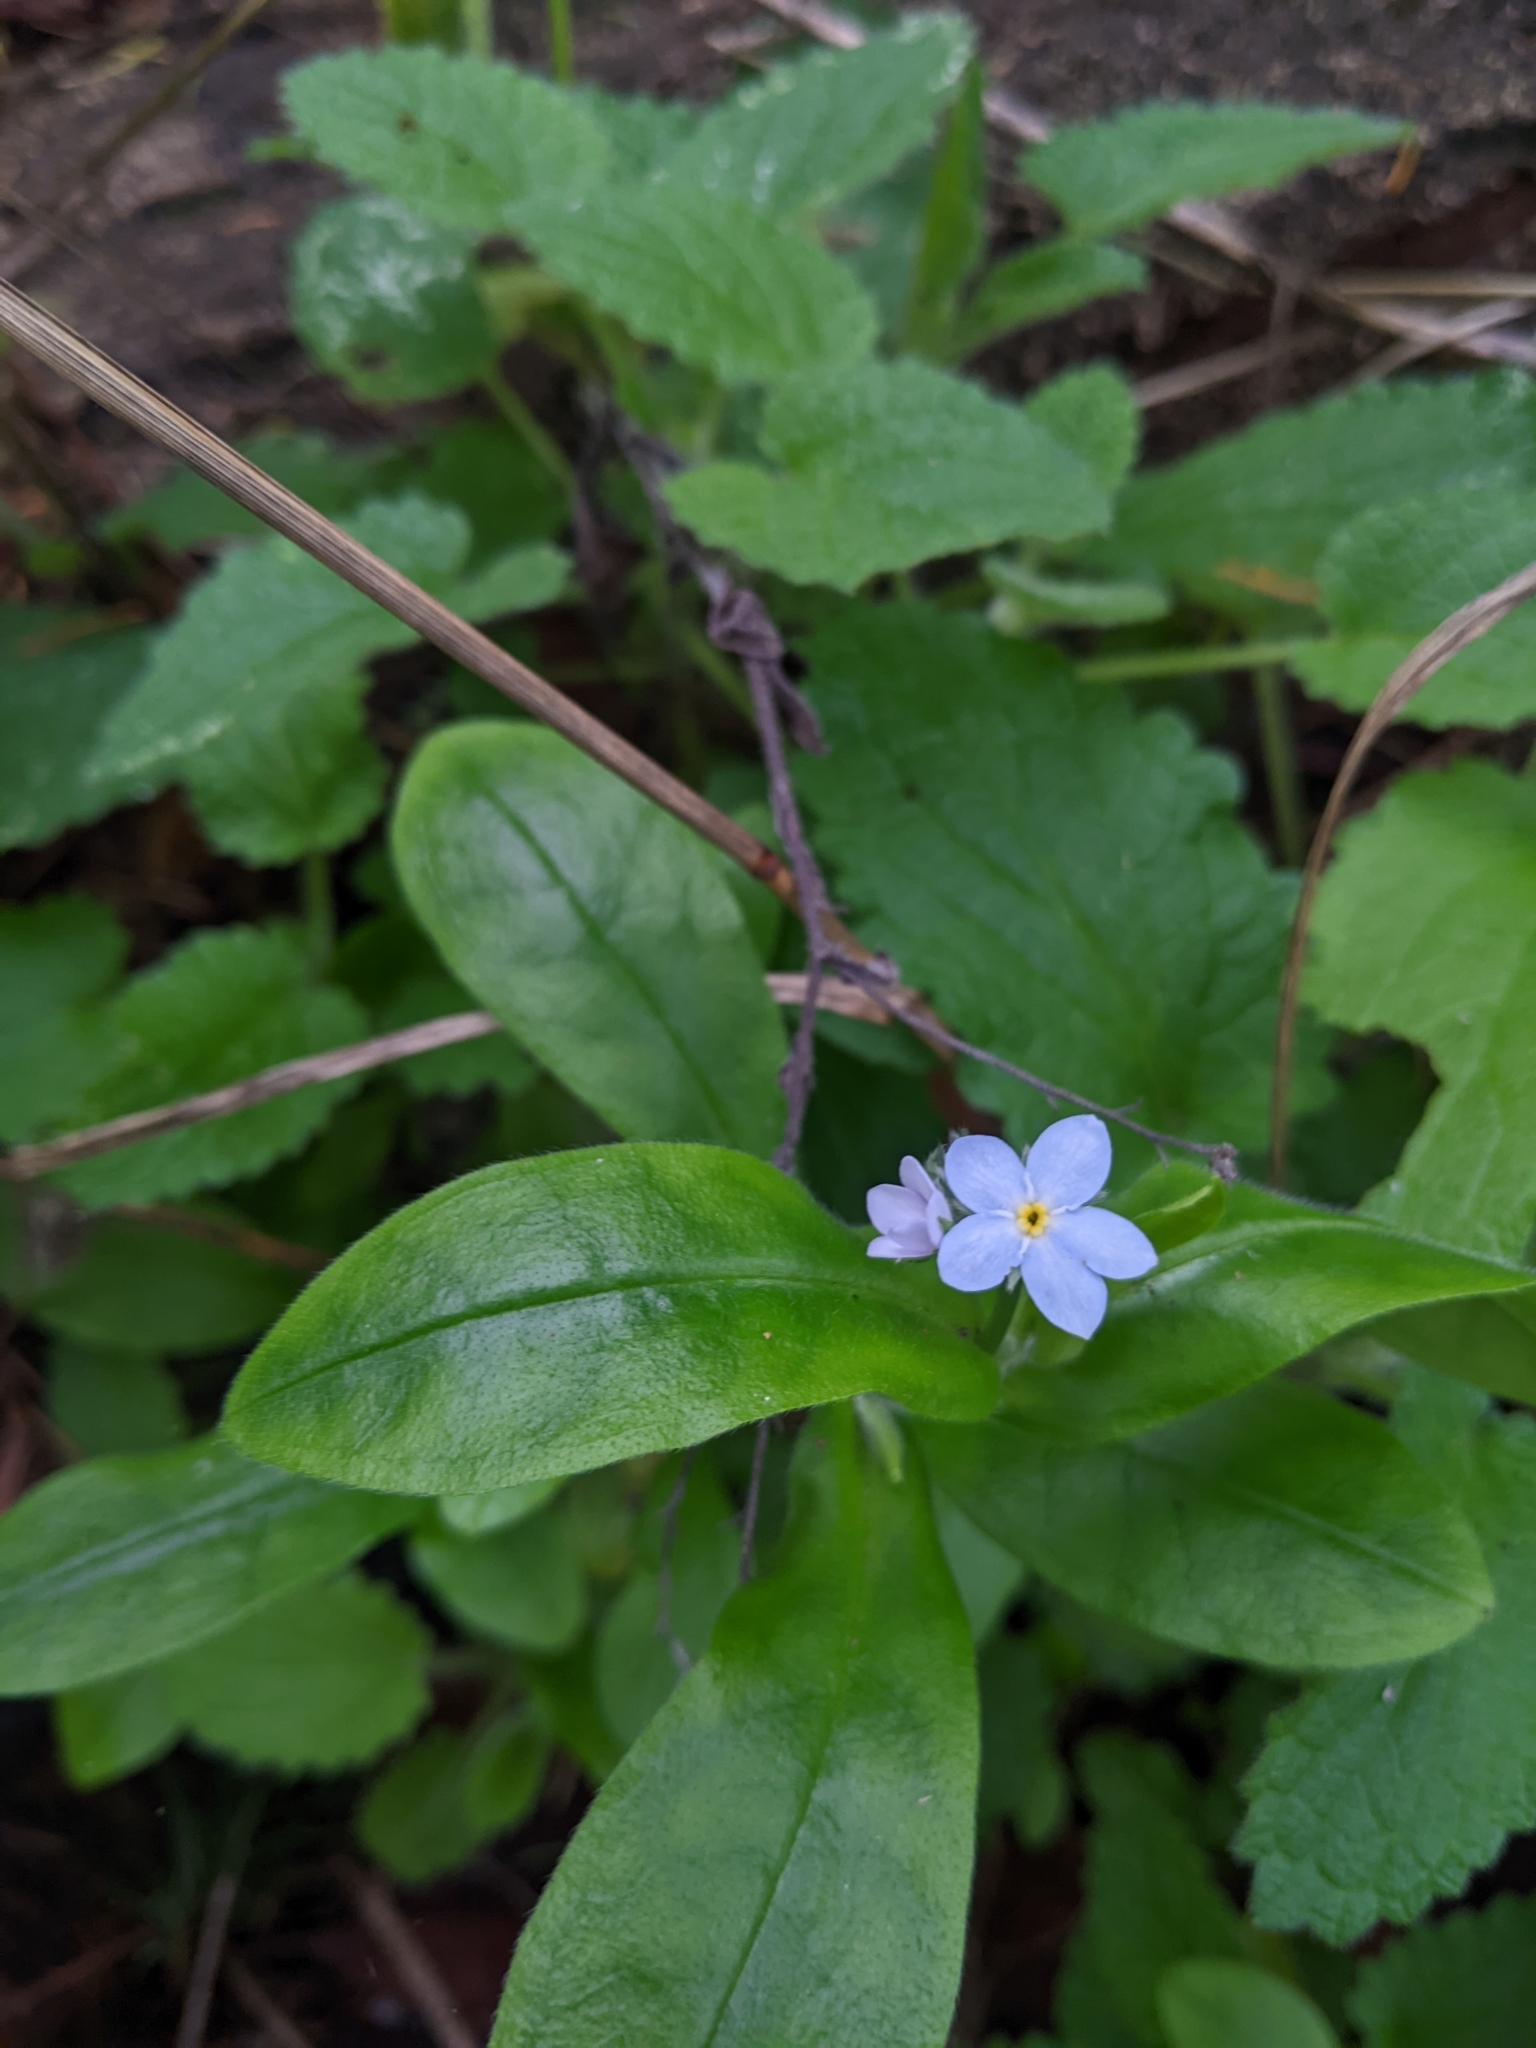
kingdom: Plantae
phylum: Tracheophyta
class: Magnoliopsida
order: Boraginales
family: Boraginaceae
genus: Myosotis
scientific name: Myosotis latifolia
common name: Broadleaf forget-me-not
